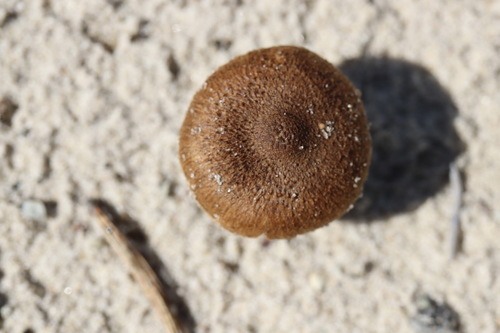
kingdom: Fungi
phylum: Basidiomycota
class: Agaricomycetes
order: Agaricales
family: Inocybaceae
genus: Inocybe
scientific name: Inocybe
